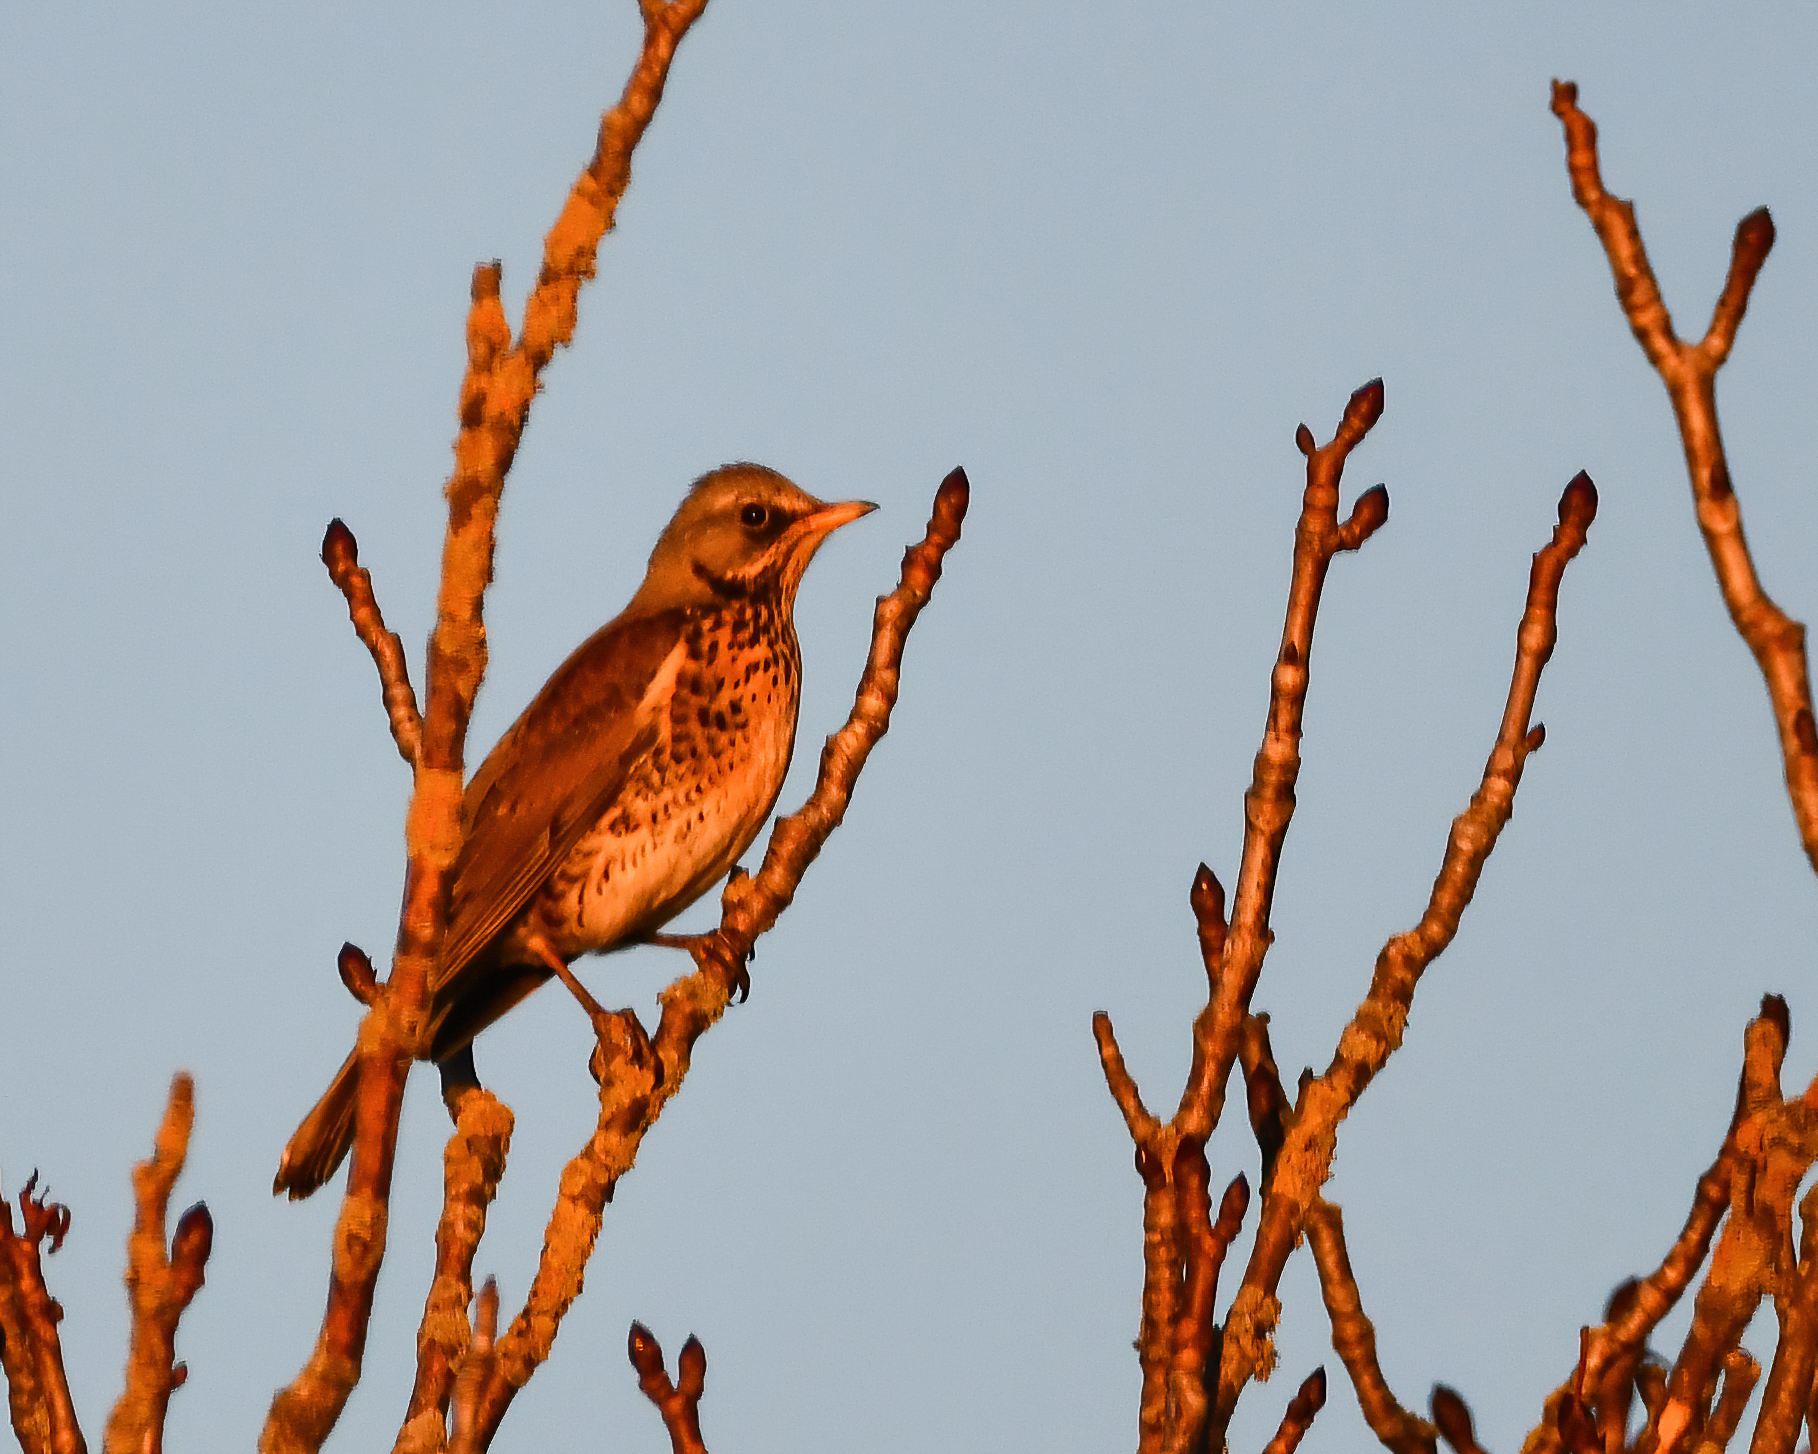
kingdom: Animalia
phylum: Chordata
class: Aves
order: Passeriformes
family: Turdidae
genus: Turdus
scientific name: Turdus pilaris
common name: Fieldfare
